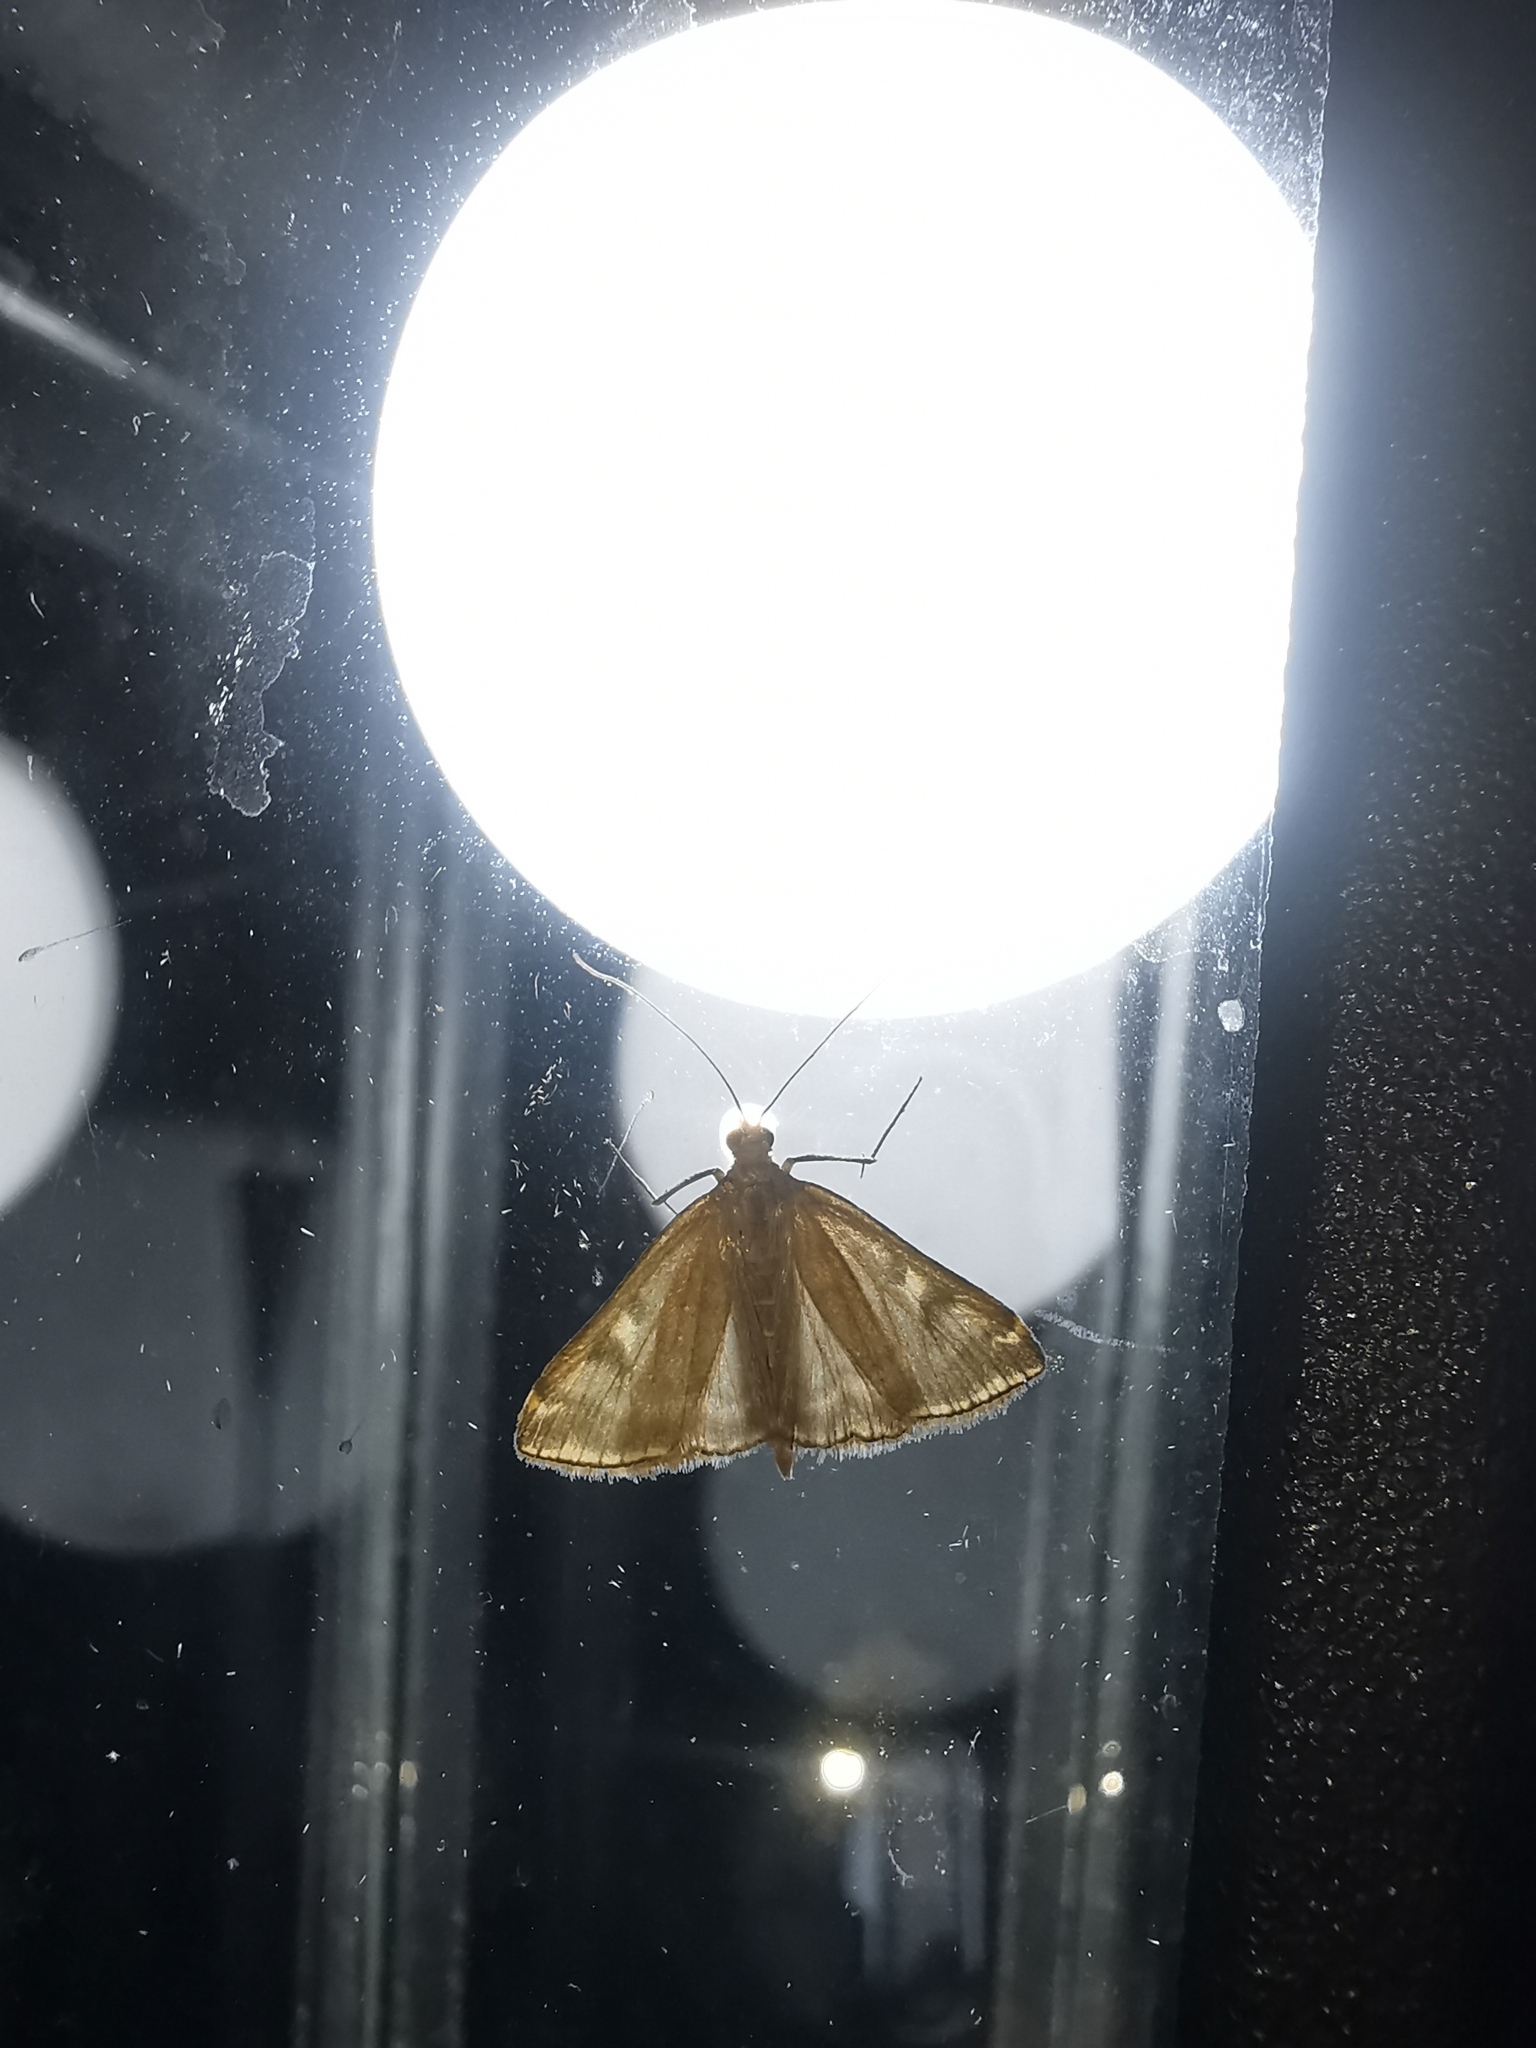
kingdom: Animalia
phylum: Arthropoda
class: Insecta
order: Lepidoptera
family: Crambidae
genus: Loxostege
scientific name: Loxostege sticticalis
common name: Crambid moth
